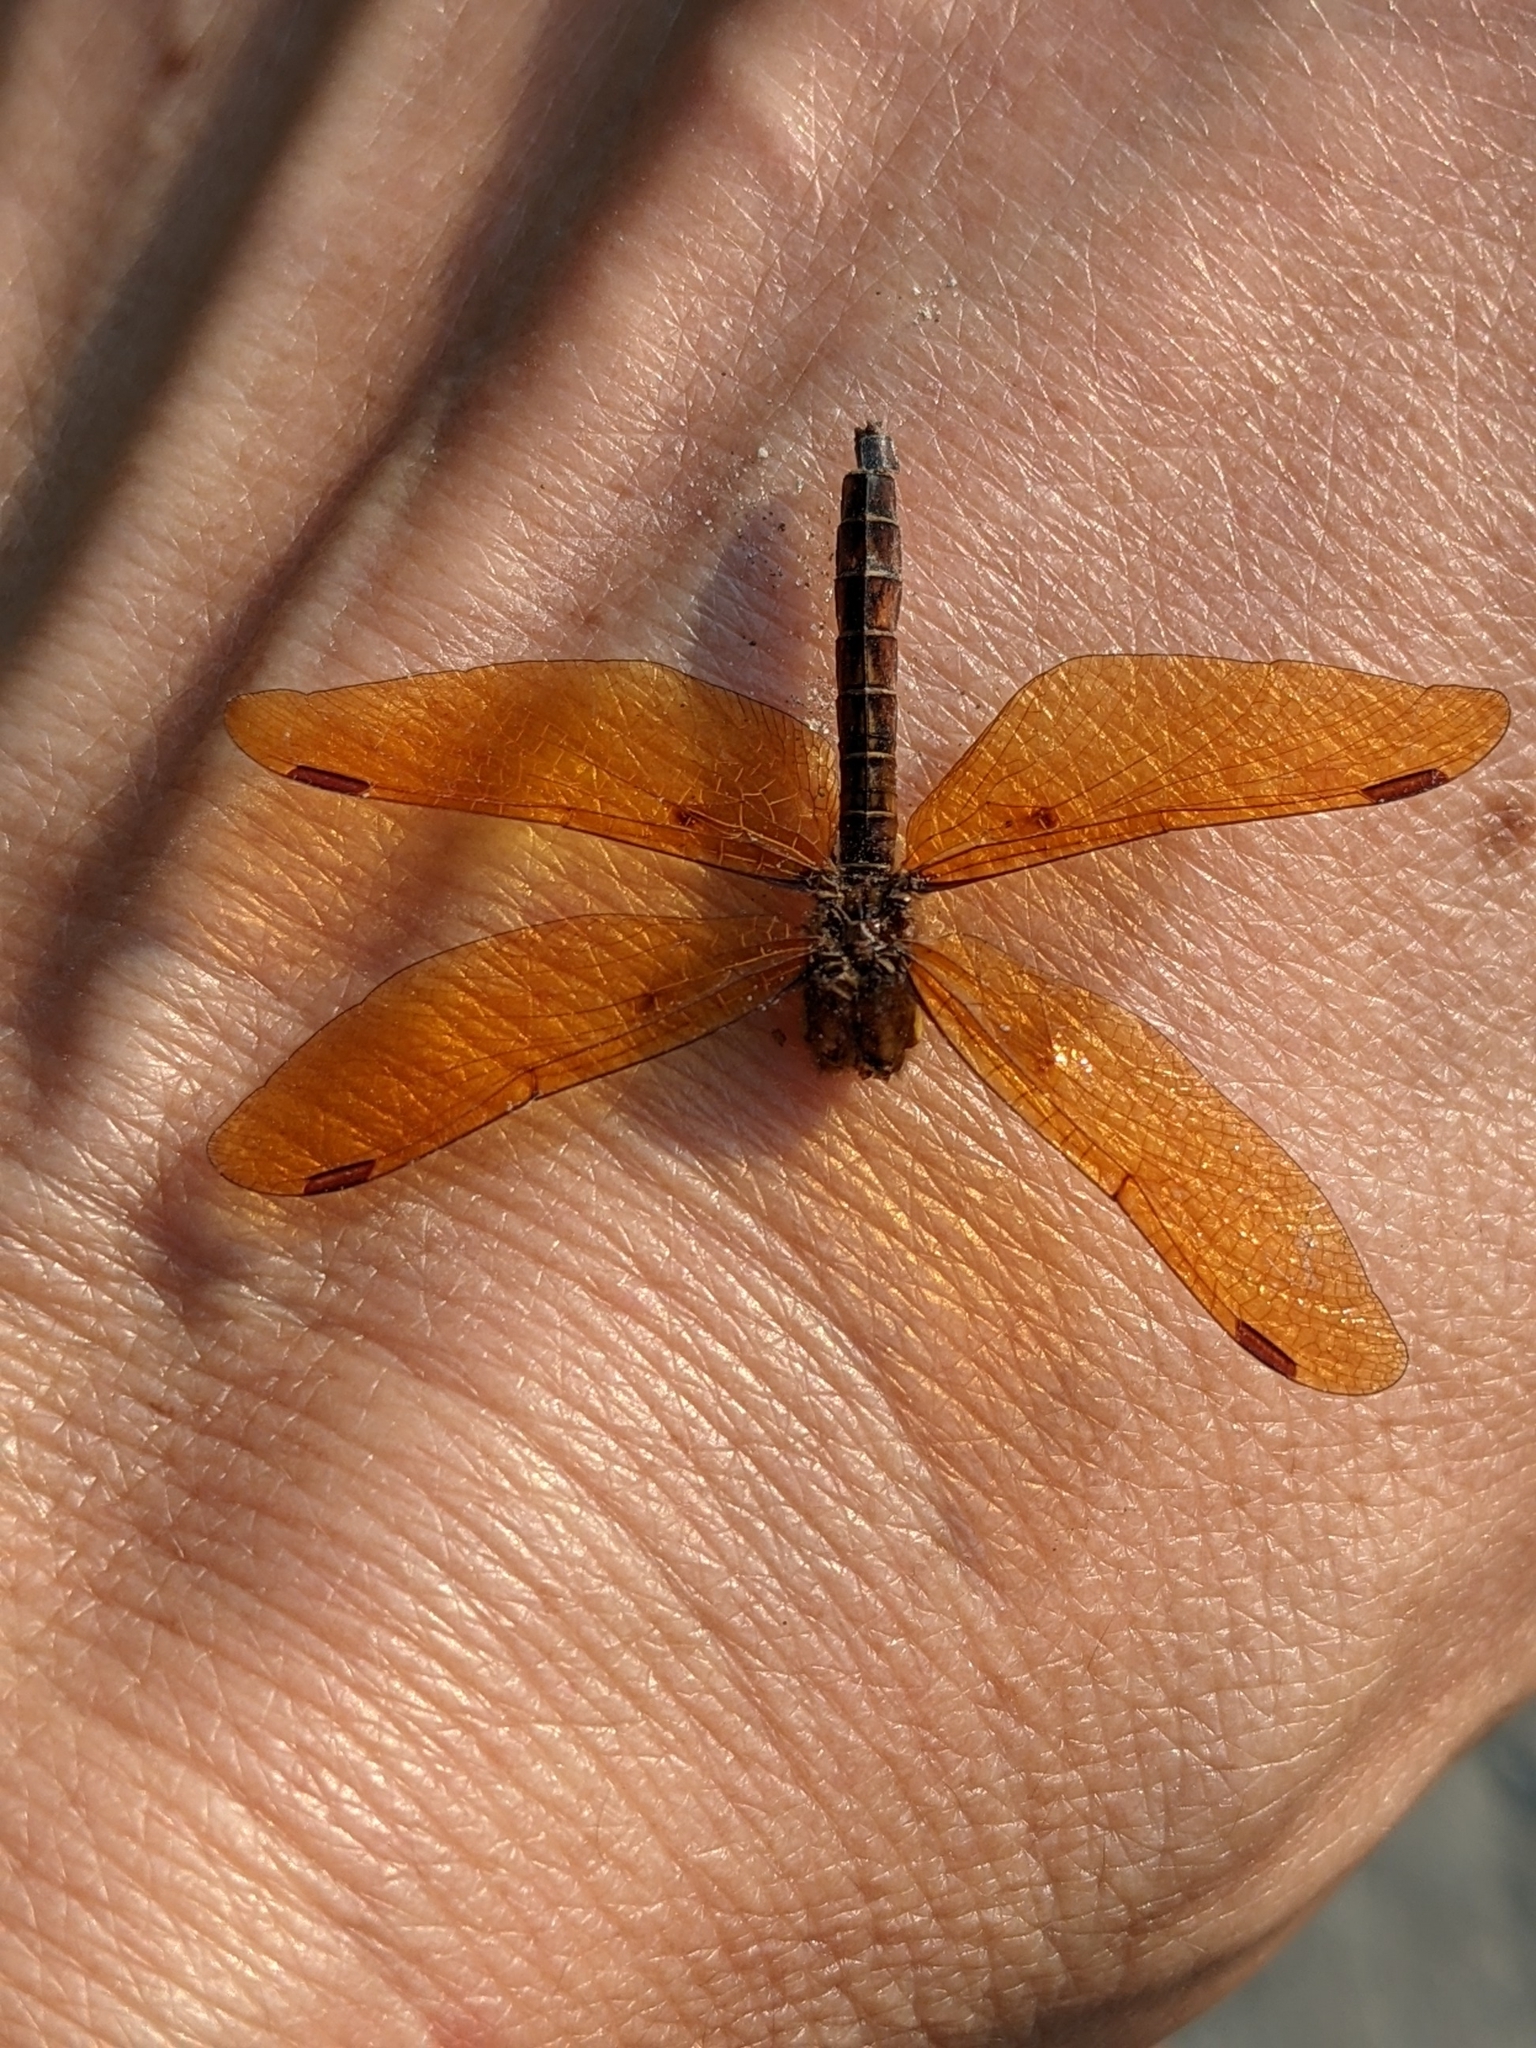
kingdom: Animalia
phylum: Arthropoda
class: Insecta
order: Odonata
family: Libellulidae
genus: Perithemis
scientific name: Perithemis tenera
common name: Eastern amberwing
